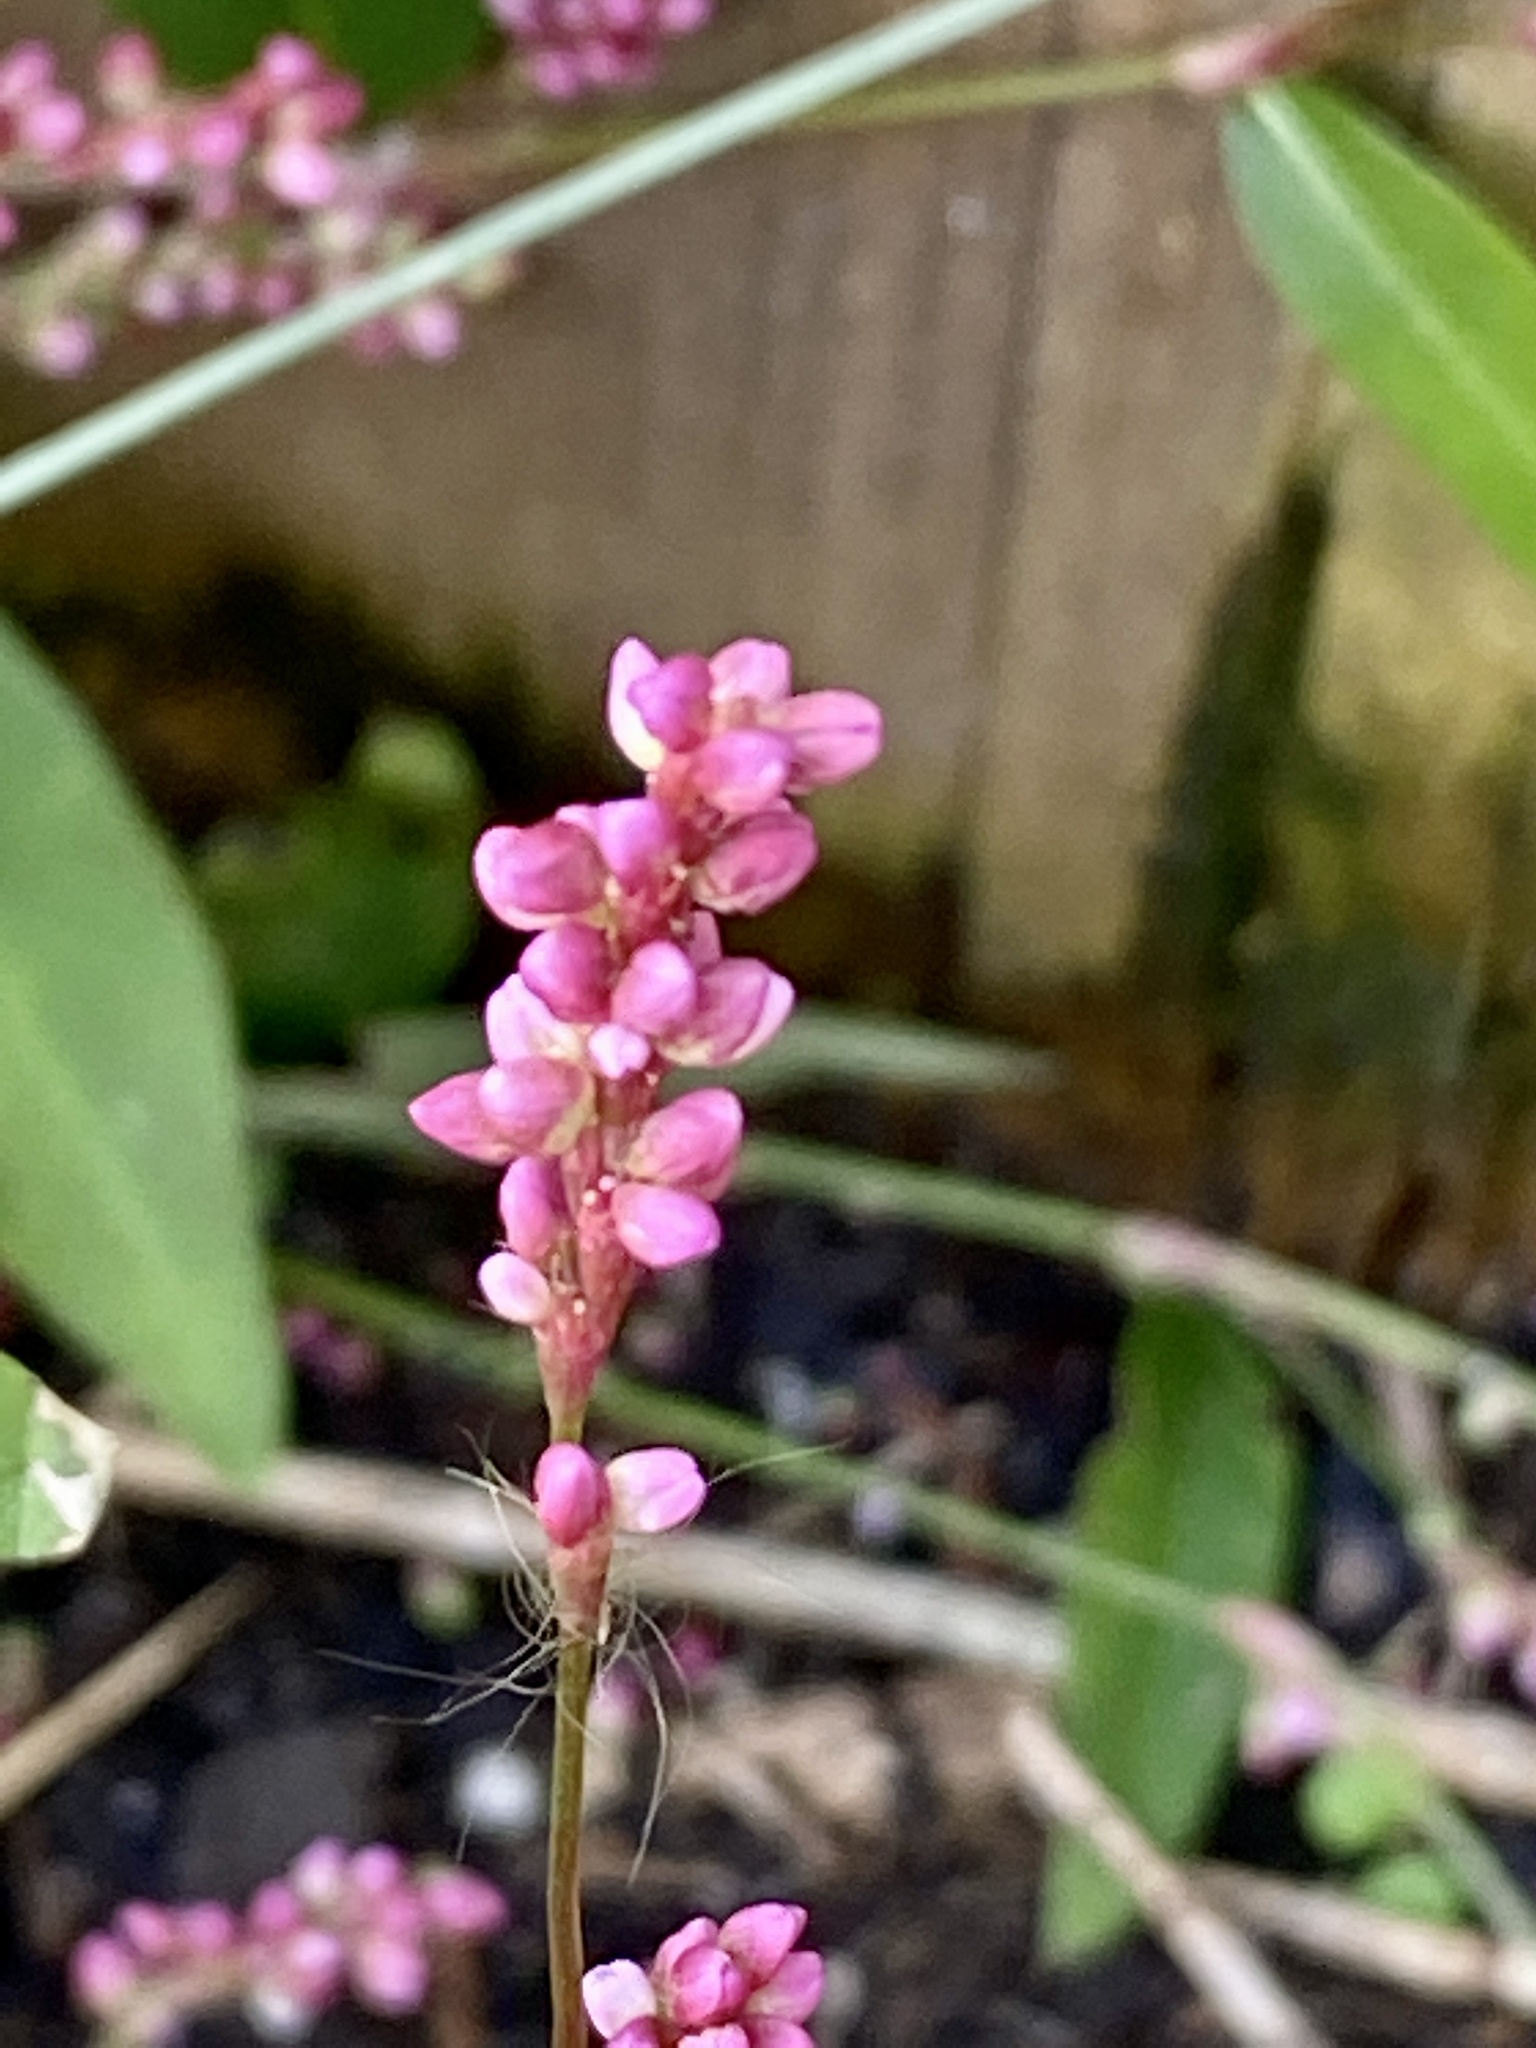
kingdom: Plantae
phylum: Tracheophyta
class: Magnoliopsida
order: Caryophyllales
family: Polygonaceae
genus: Persicaria
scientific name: Persicaria longiseta
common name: Bristly lady's-thumb
